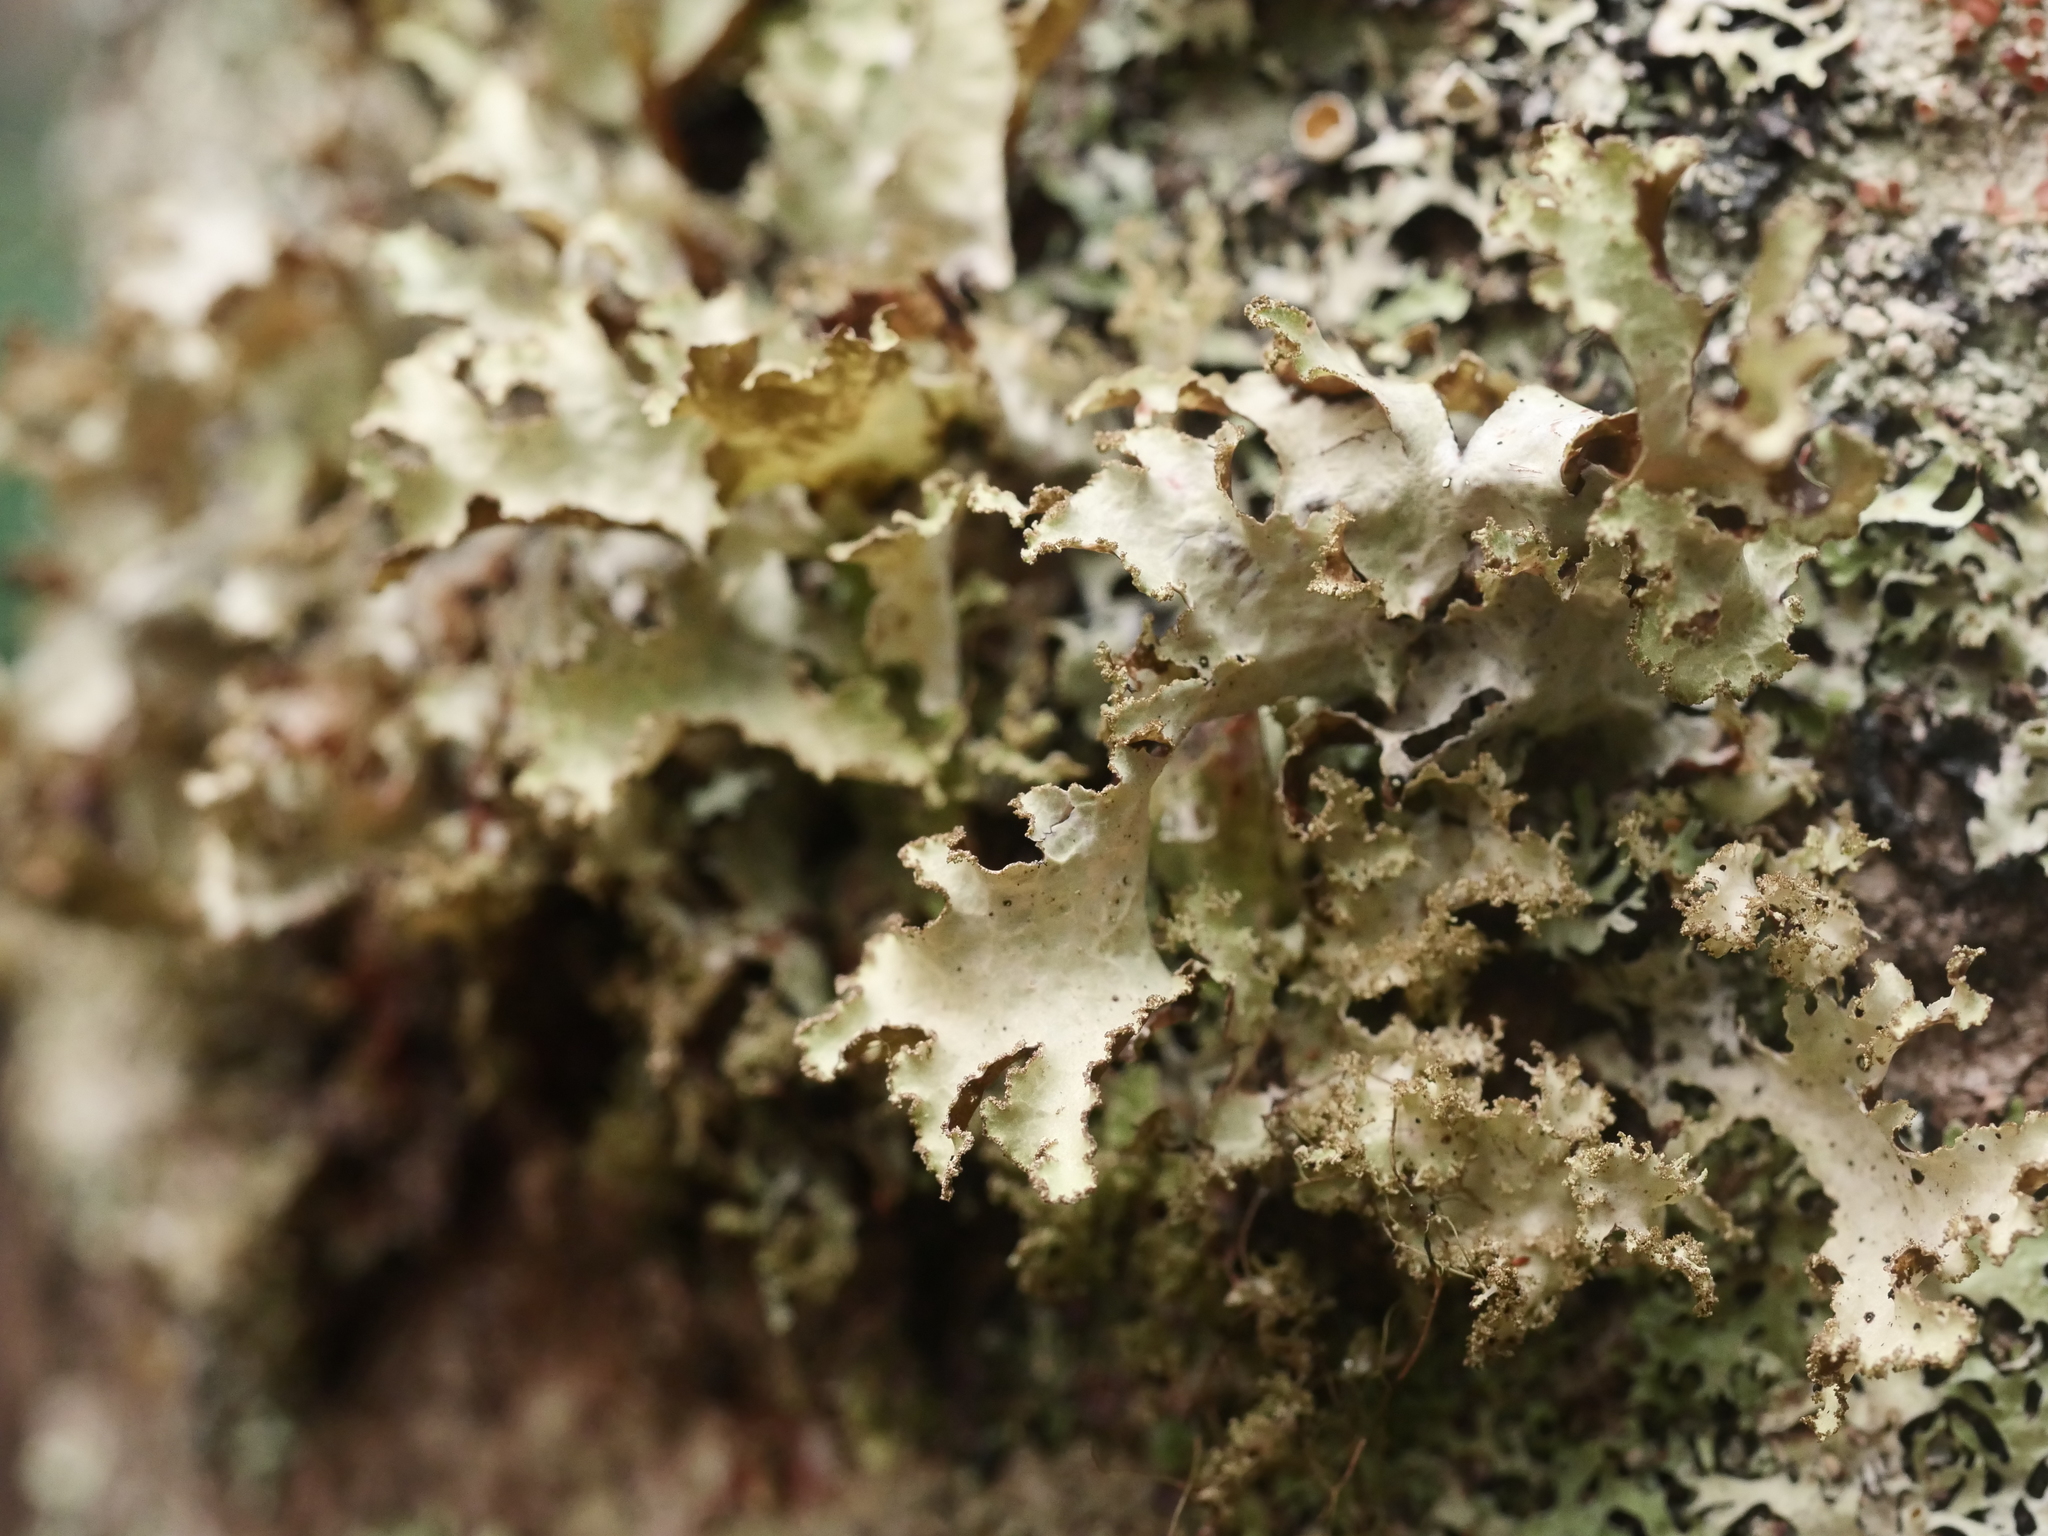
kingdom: Fungi
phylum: Ascomycota
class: Lecanoromycetes
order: Lecanorales
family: Parmeliaceae
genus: Platismatia
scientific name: Platismatia glauca
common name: Varied rag lichen
